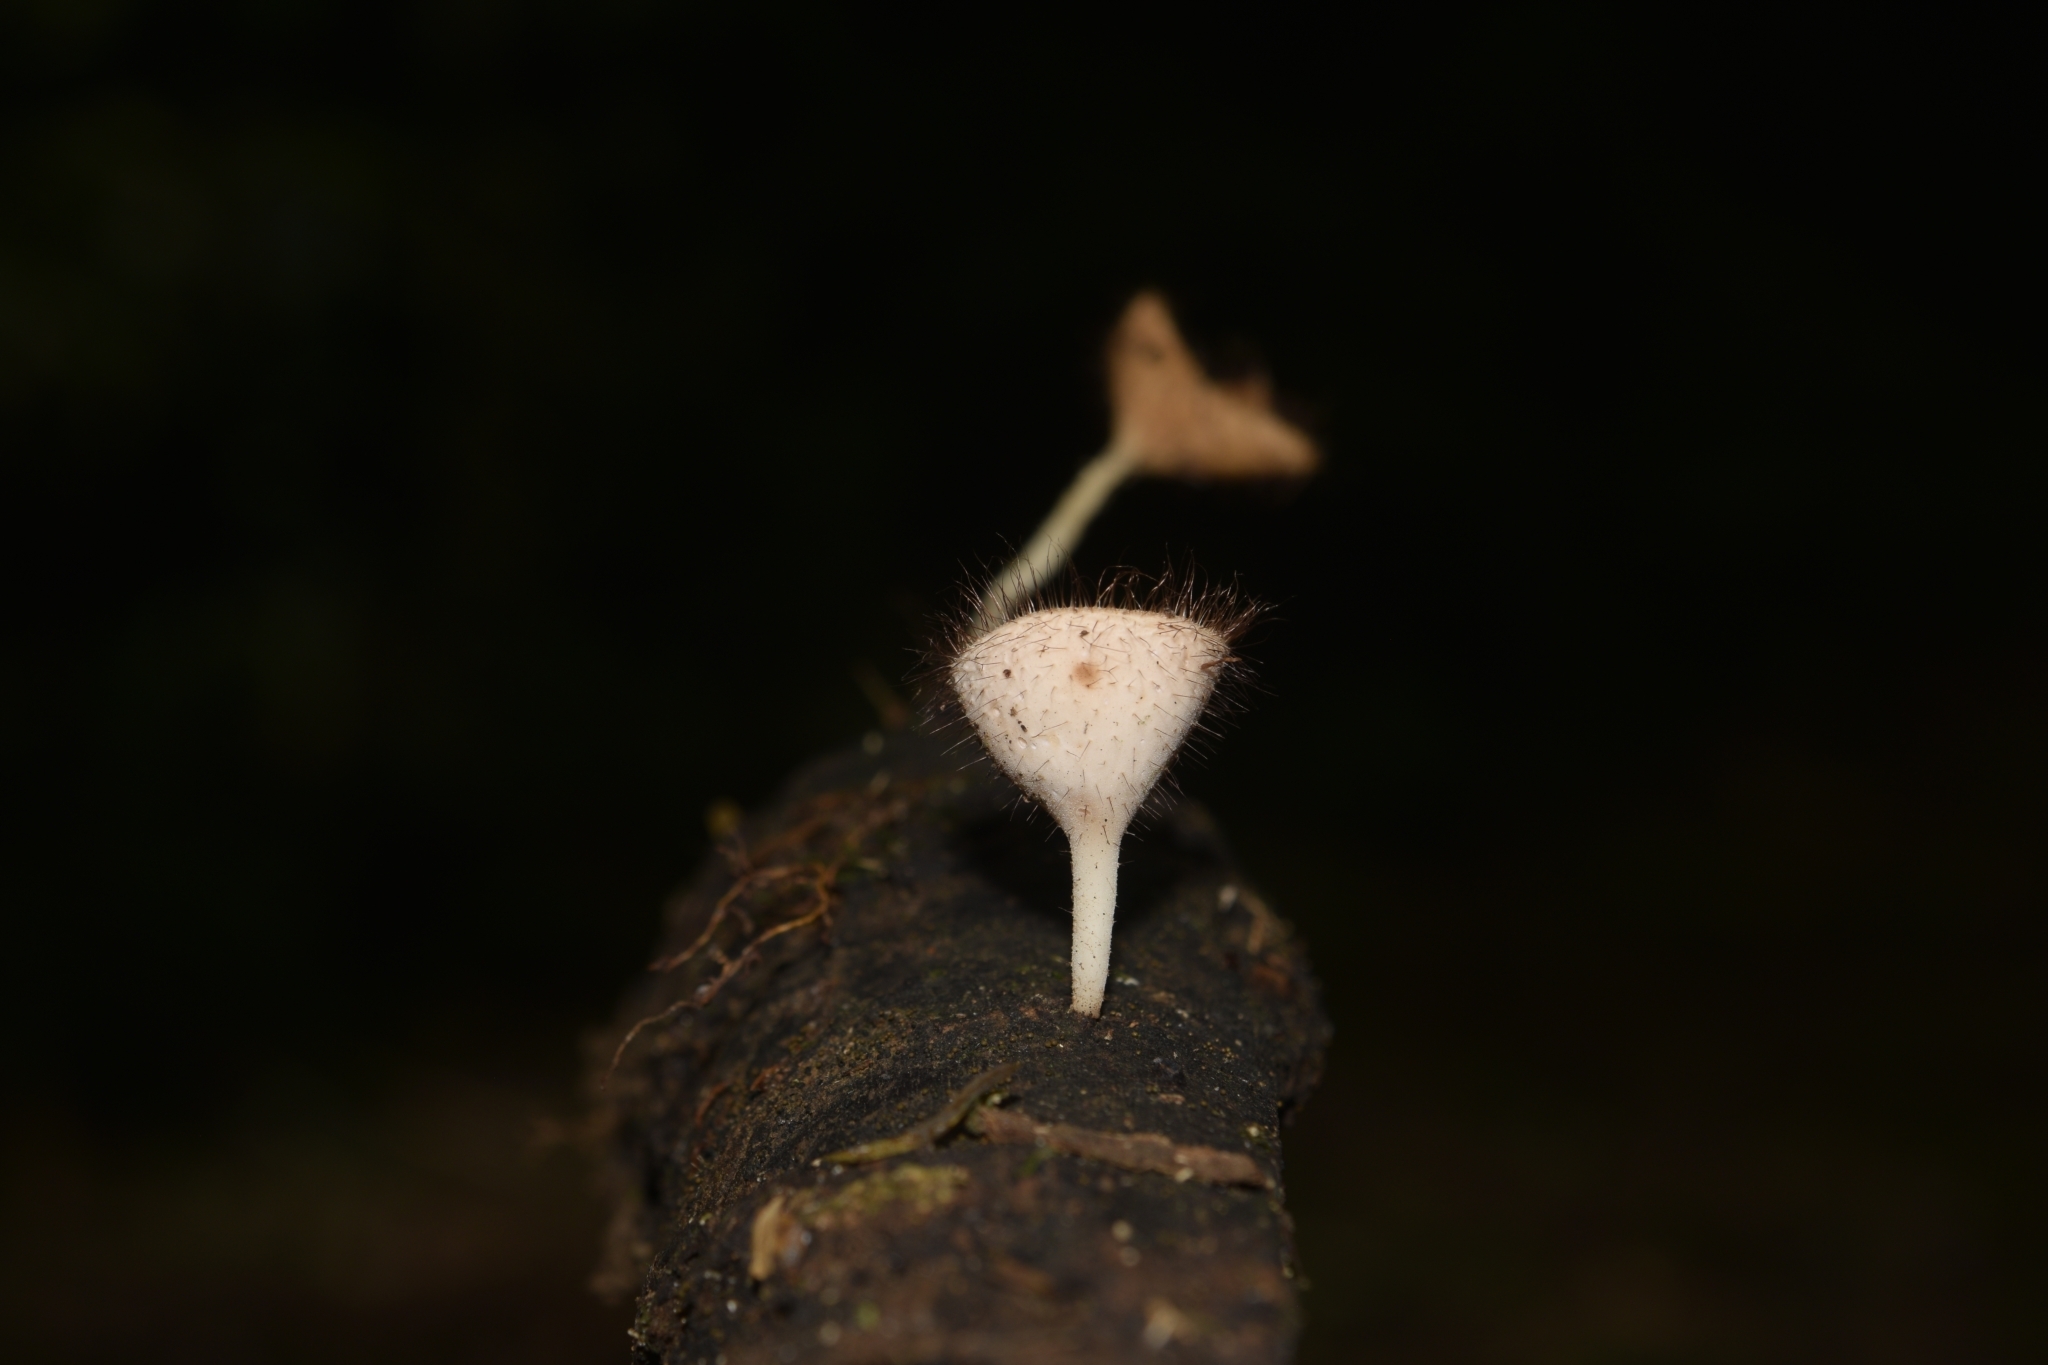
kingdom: Fungi
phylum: Ascomycota
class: Pezizomycetes
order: Pezizales
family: Sarcoscyphaceae
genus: Cookeina
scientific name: Cookeina tricholoma
